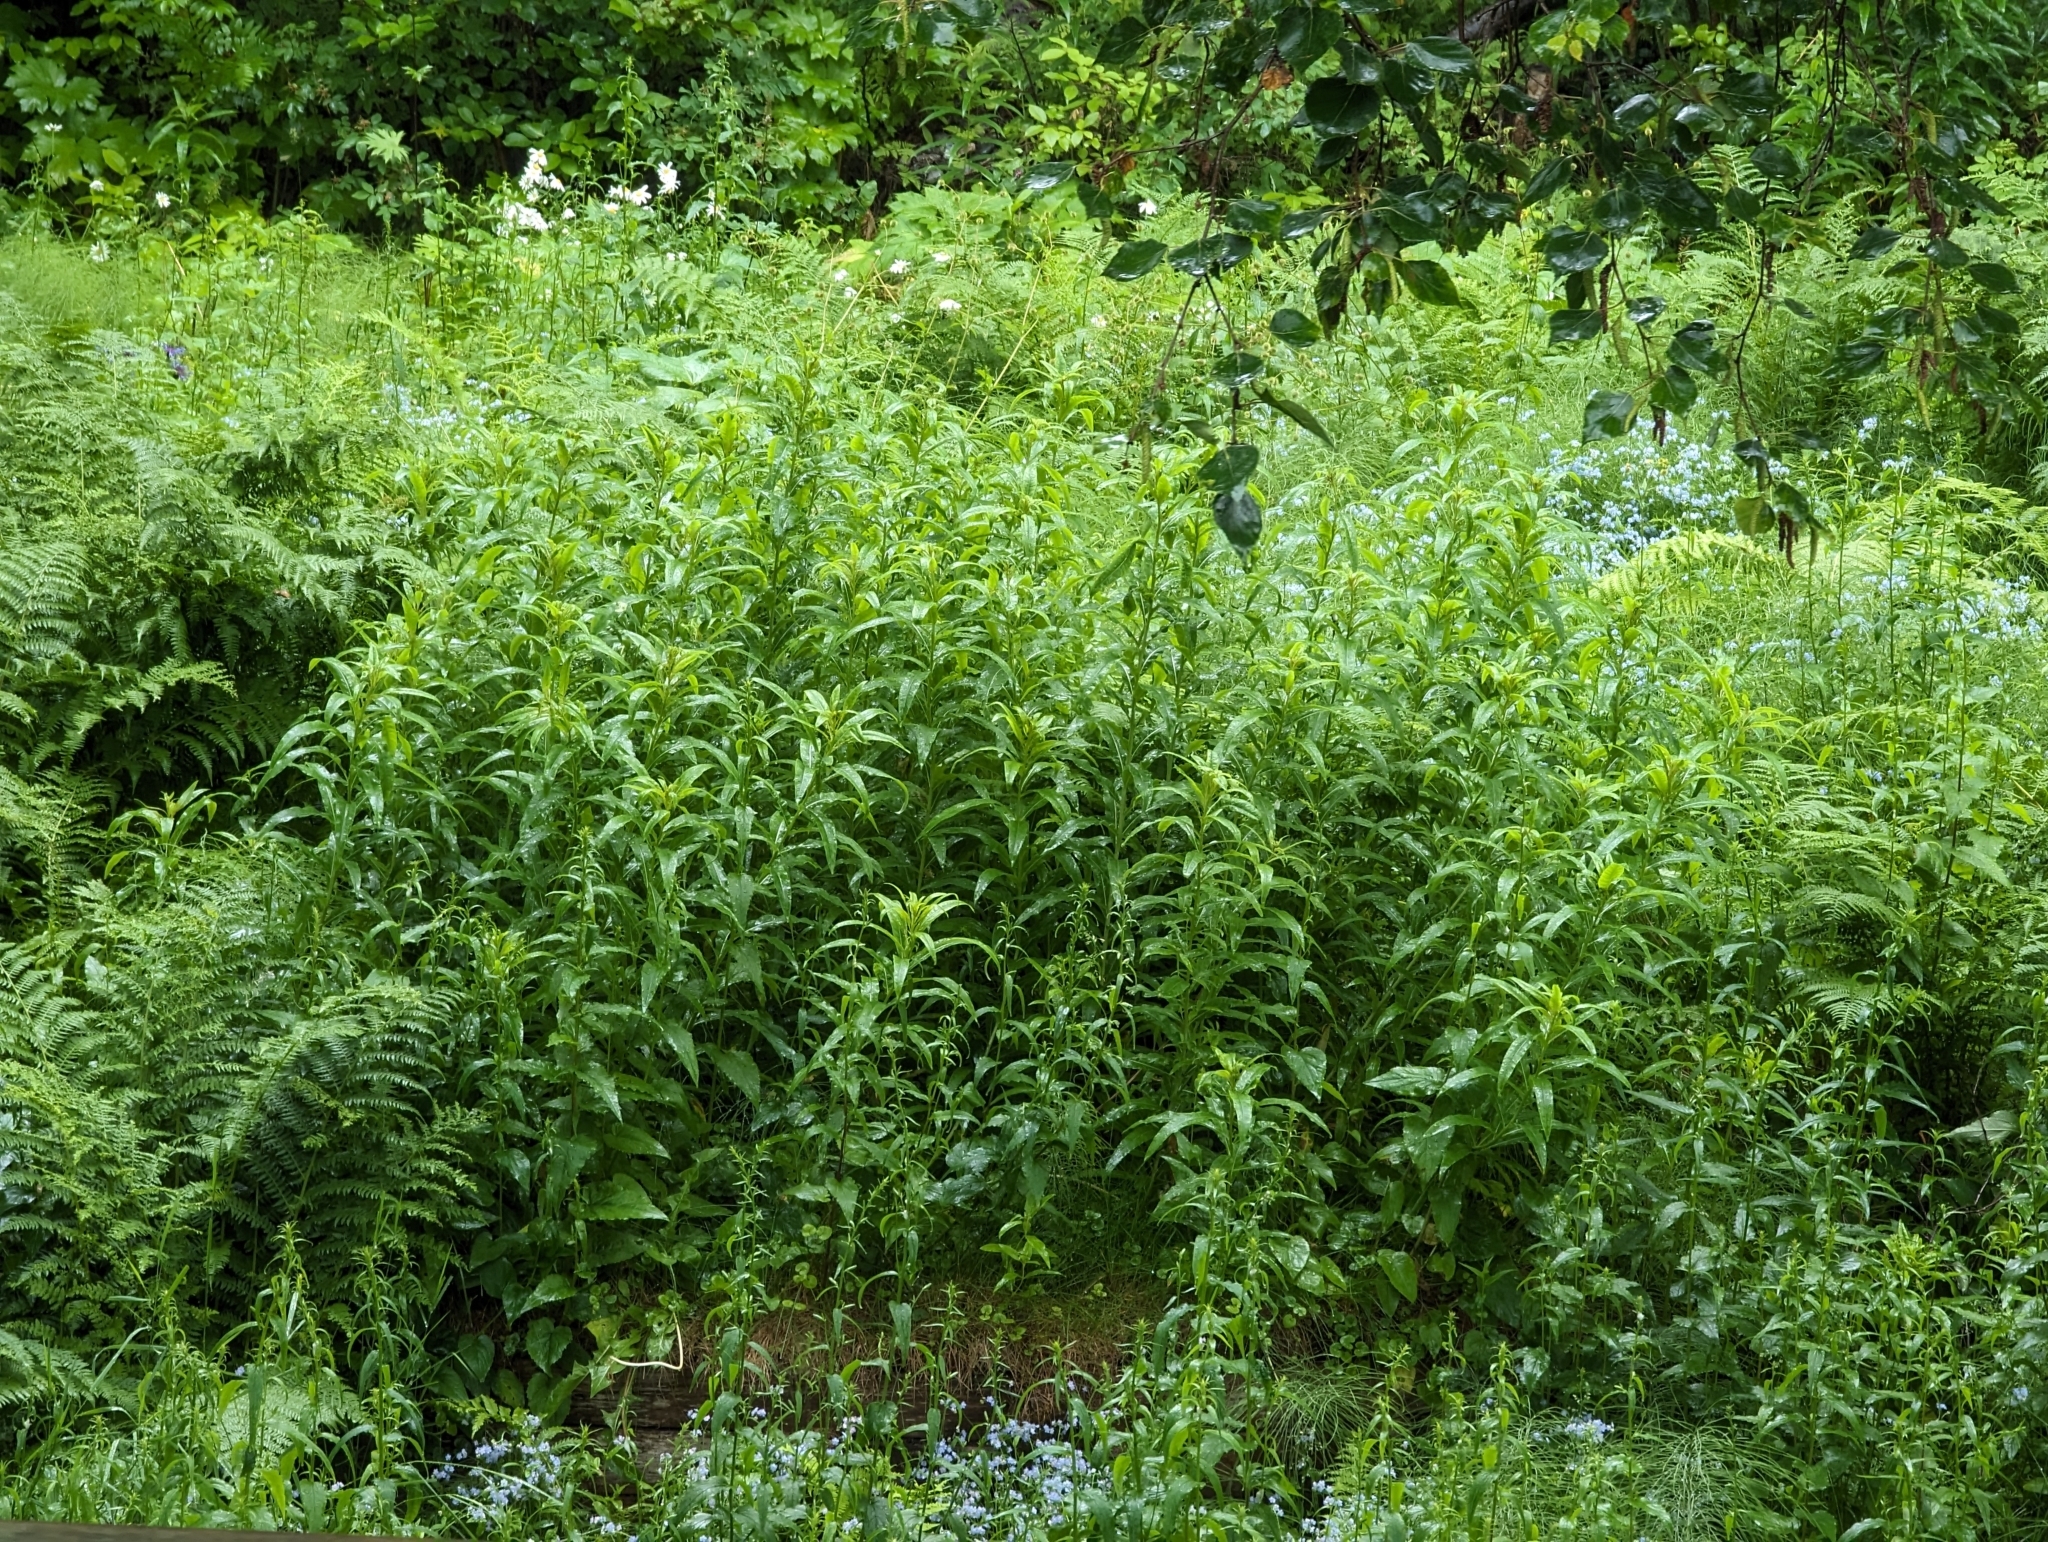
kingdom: Plantae
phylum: Tracheophyta
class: Magnoliopsida
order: Myrtales
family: Onagraceae
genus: Chamaenerion
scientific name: Chamaenerion angustifolium
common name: Fireweed
